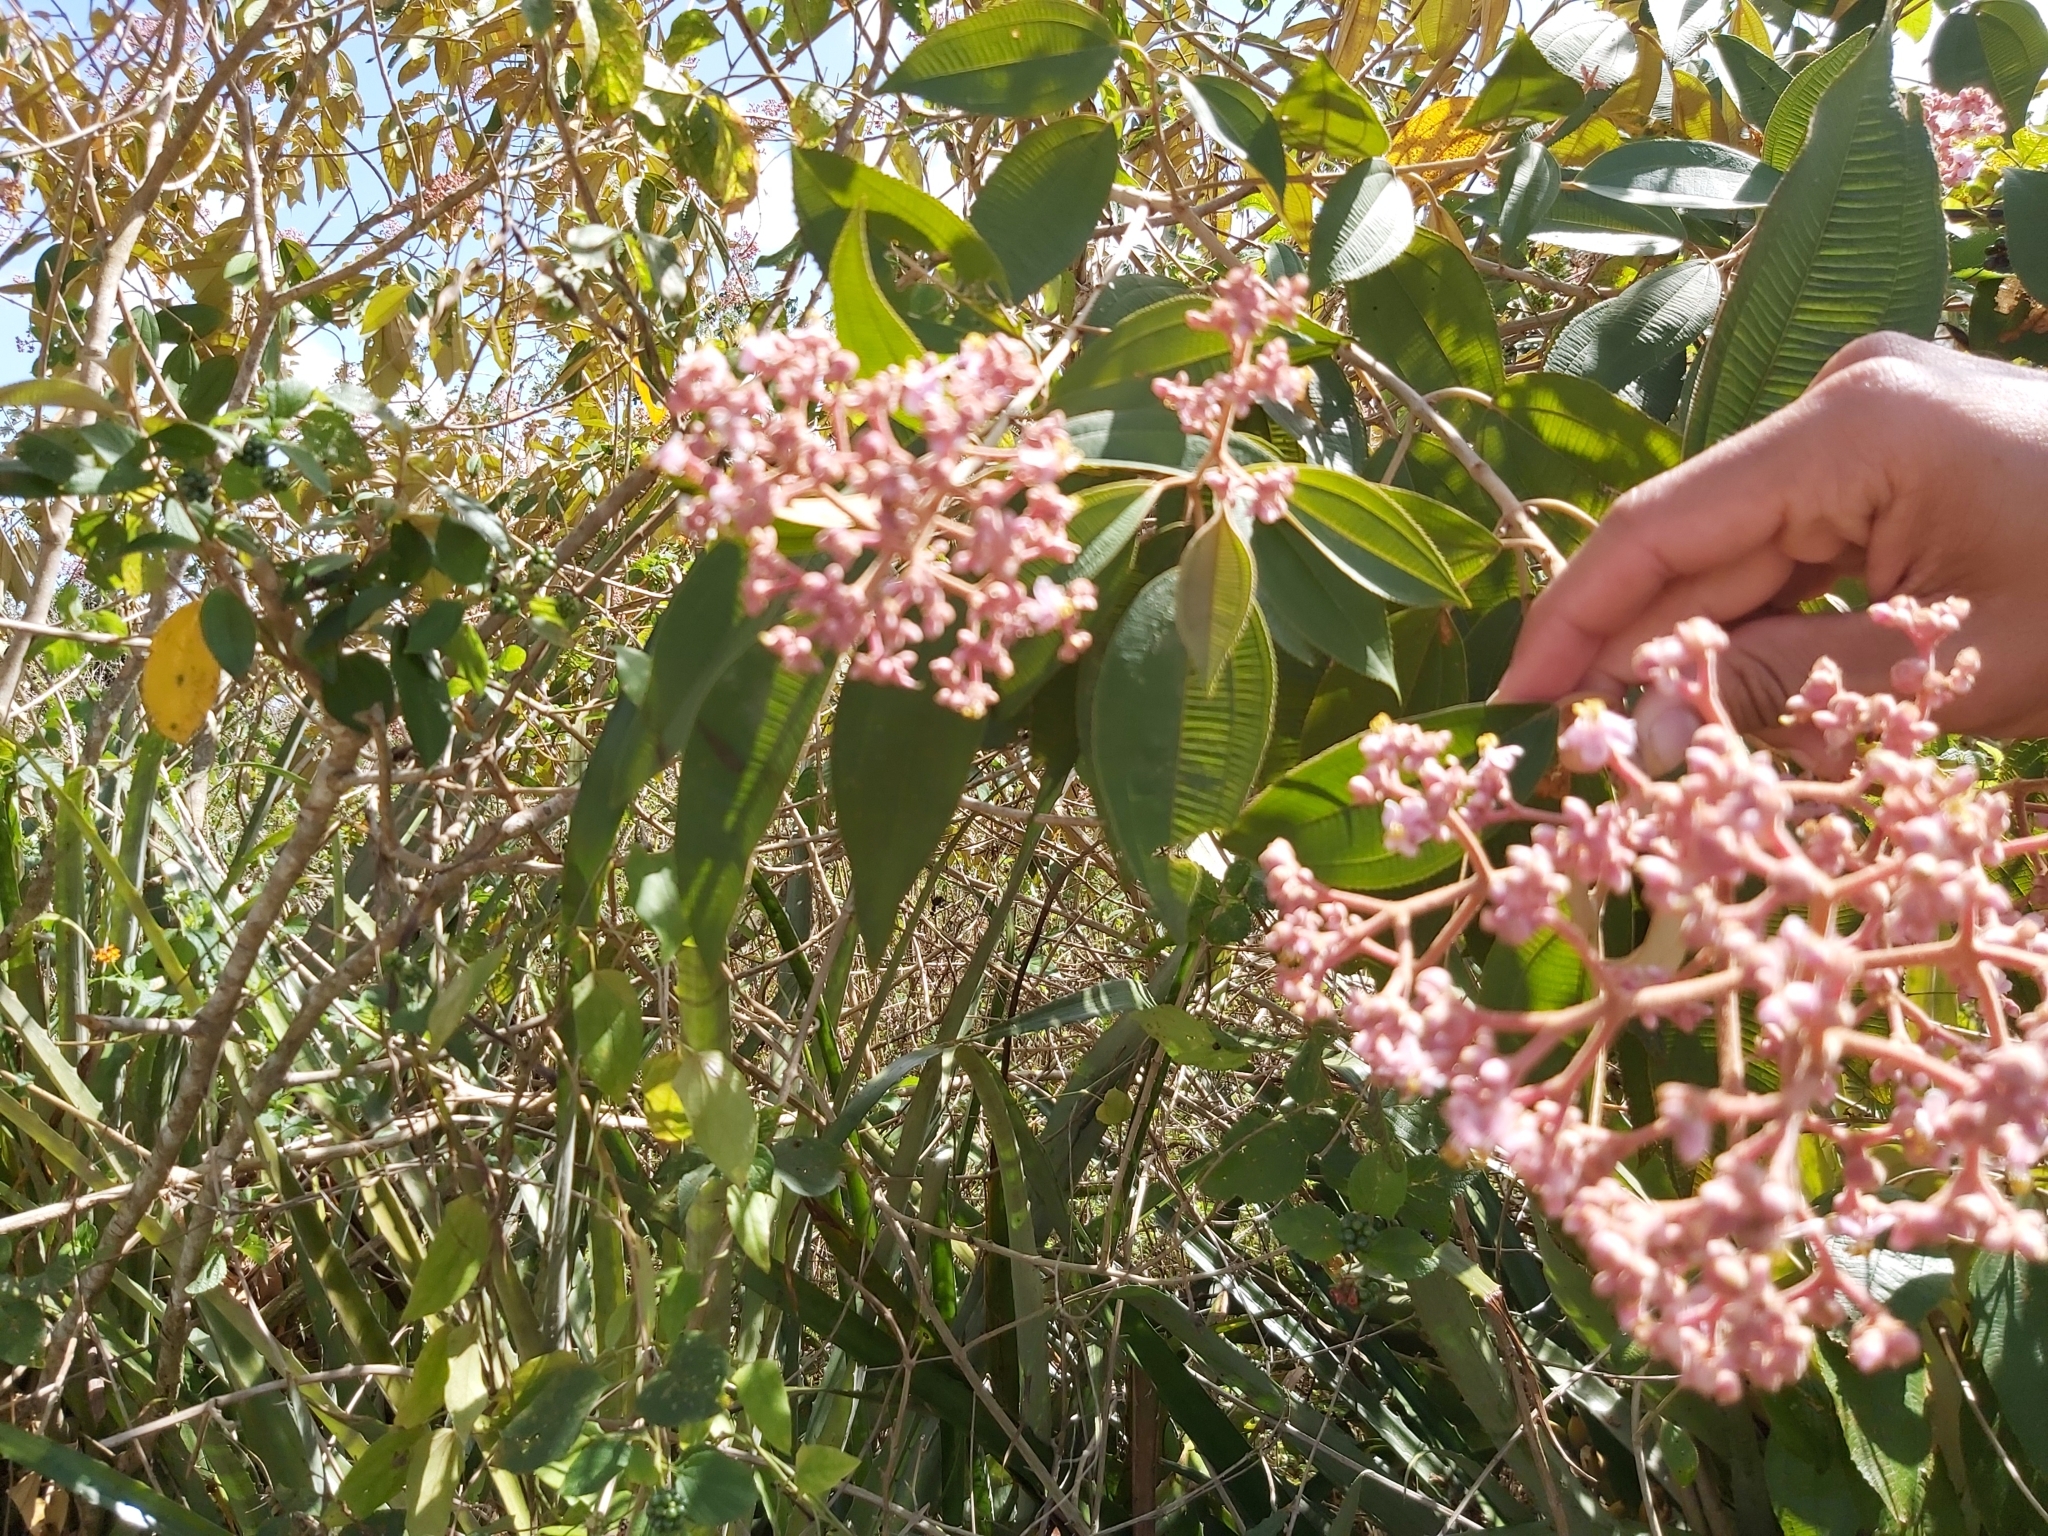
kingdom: Plantae
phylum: Tracheophyta
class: Magnoliopsida
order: Myrtales
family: Melastomataceae
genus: Miconia
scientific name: Miconia xalapensis
